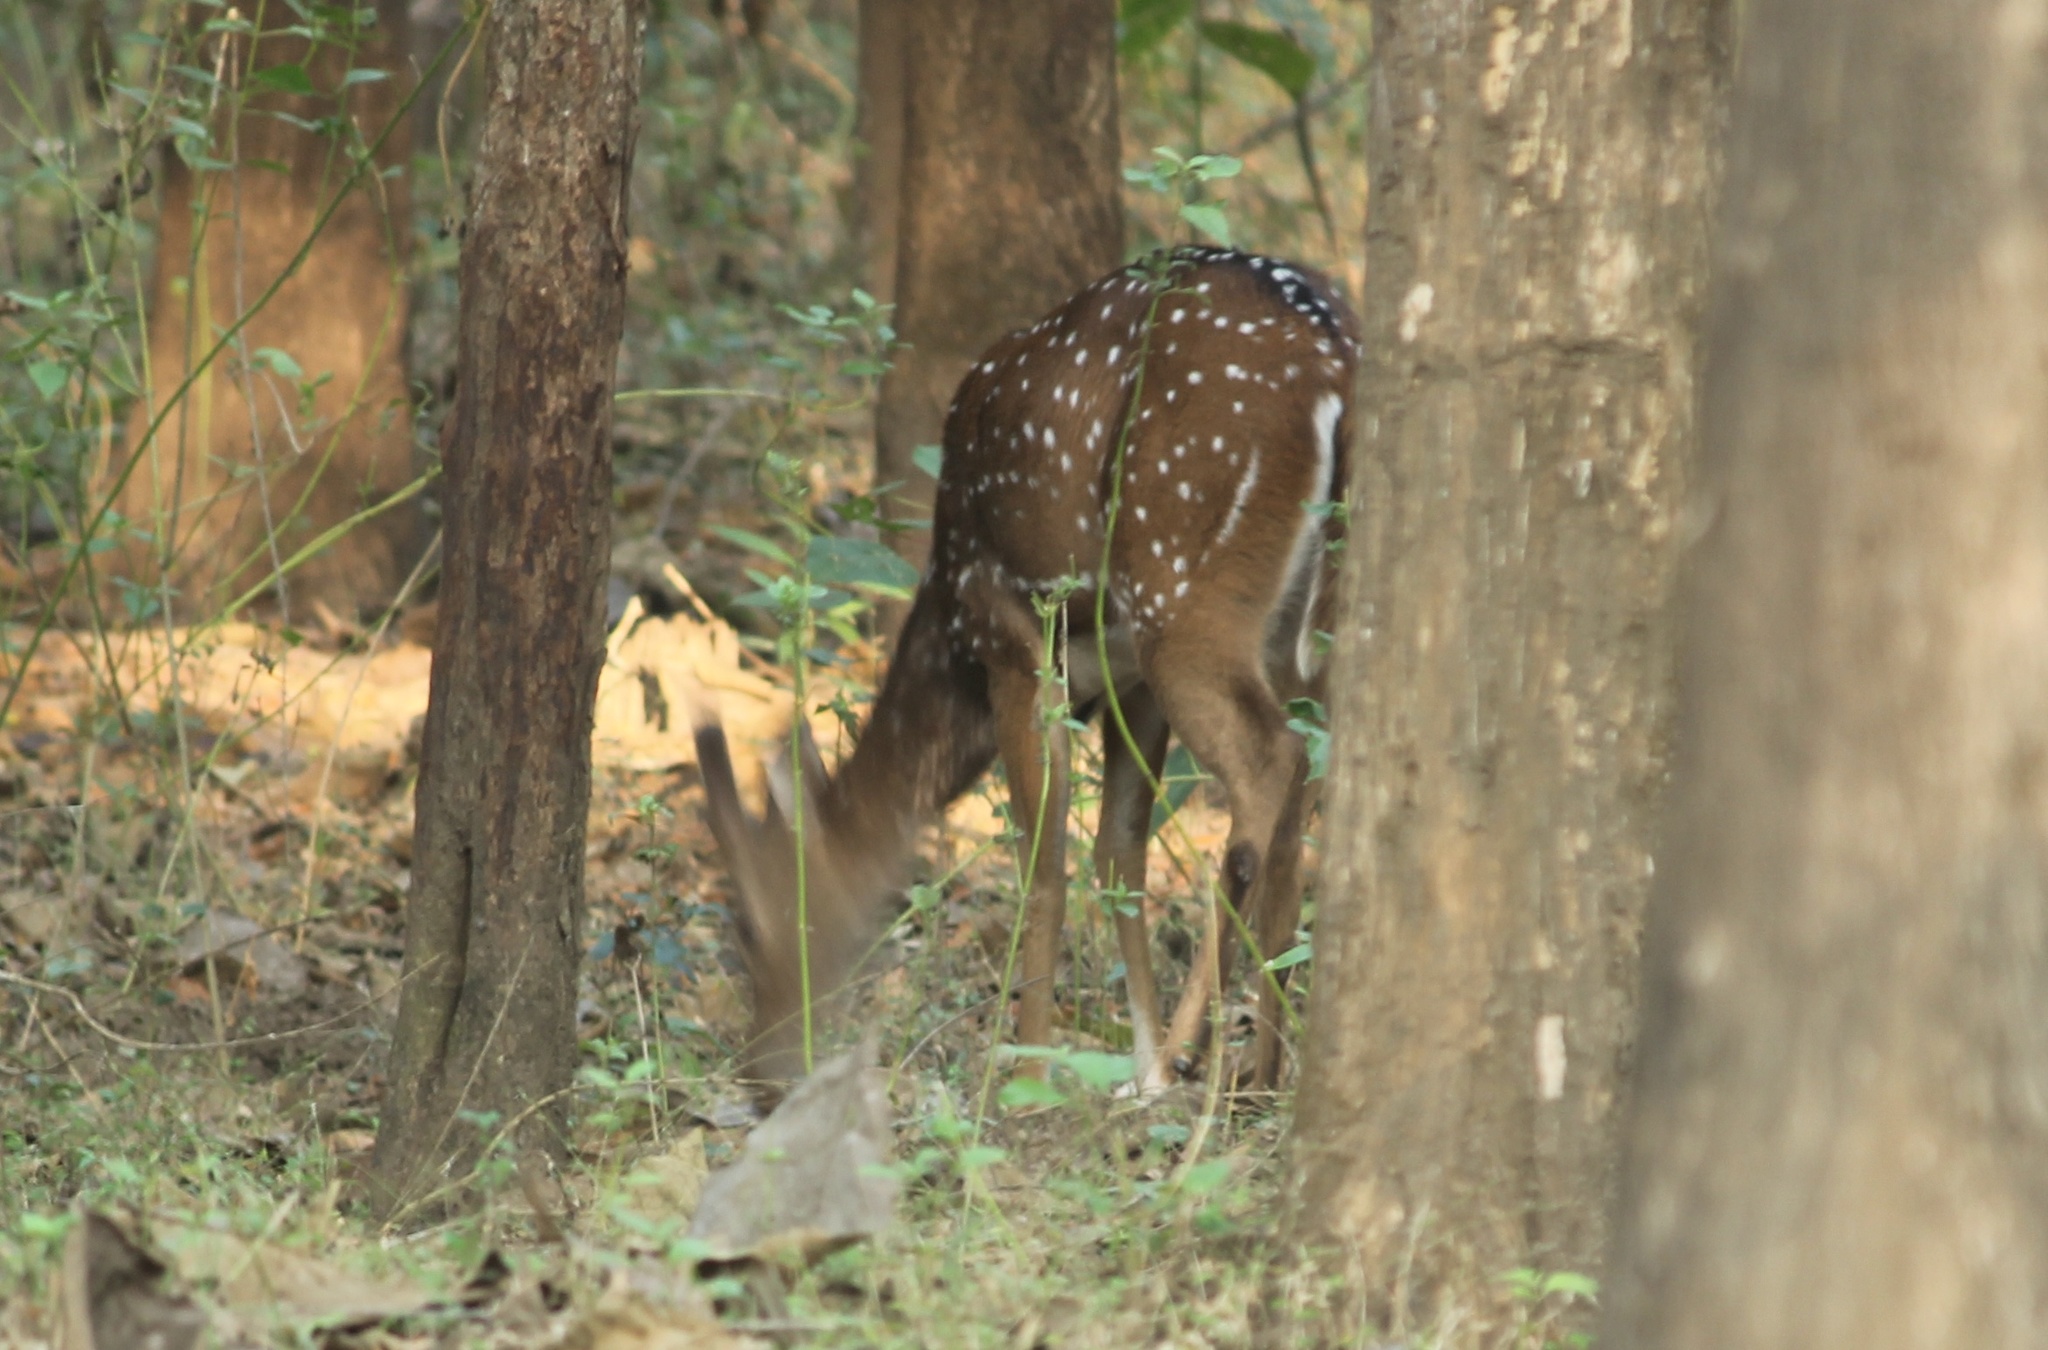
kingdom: Animalia
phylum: Chordata
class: Mammalia
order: Artiodactyla
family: Cervidae
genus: Axis
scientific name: Axis axis
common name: Chital
